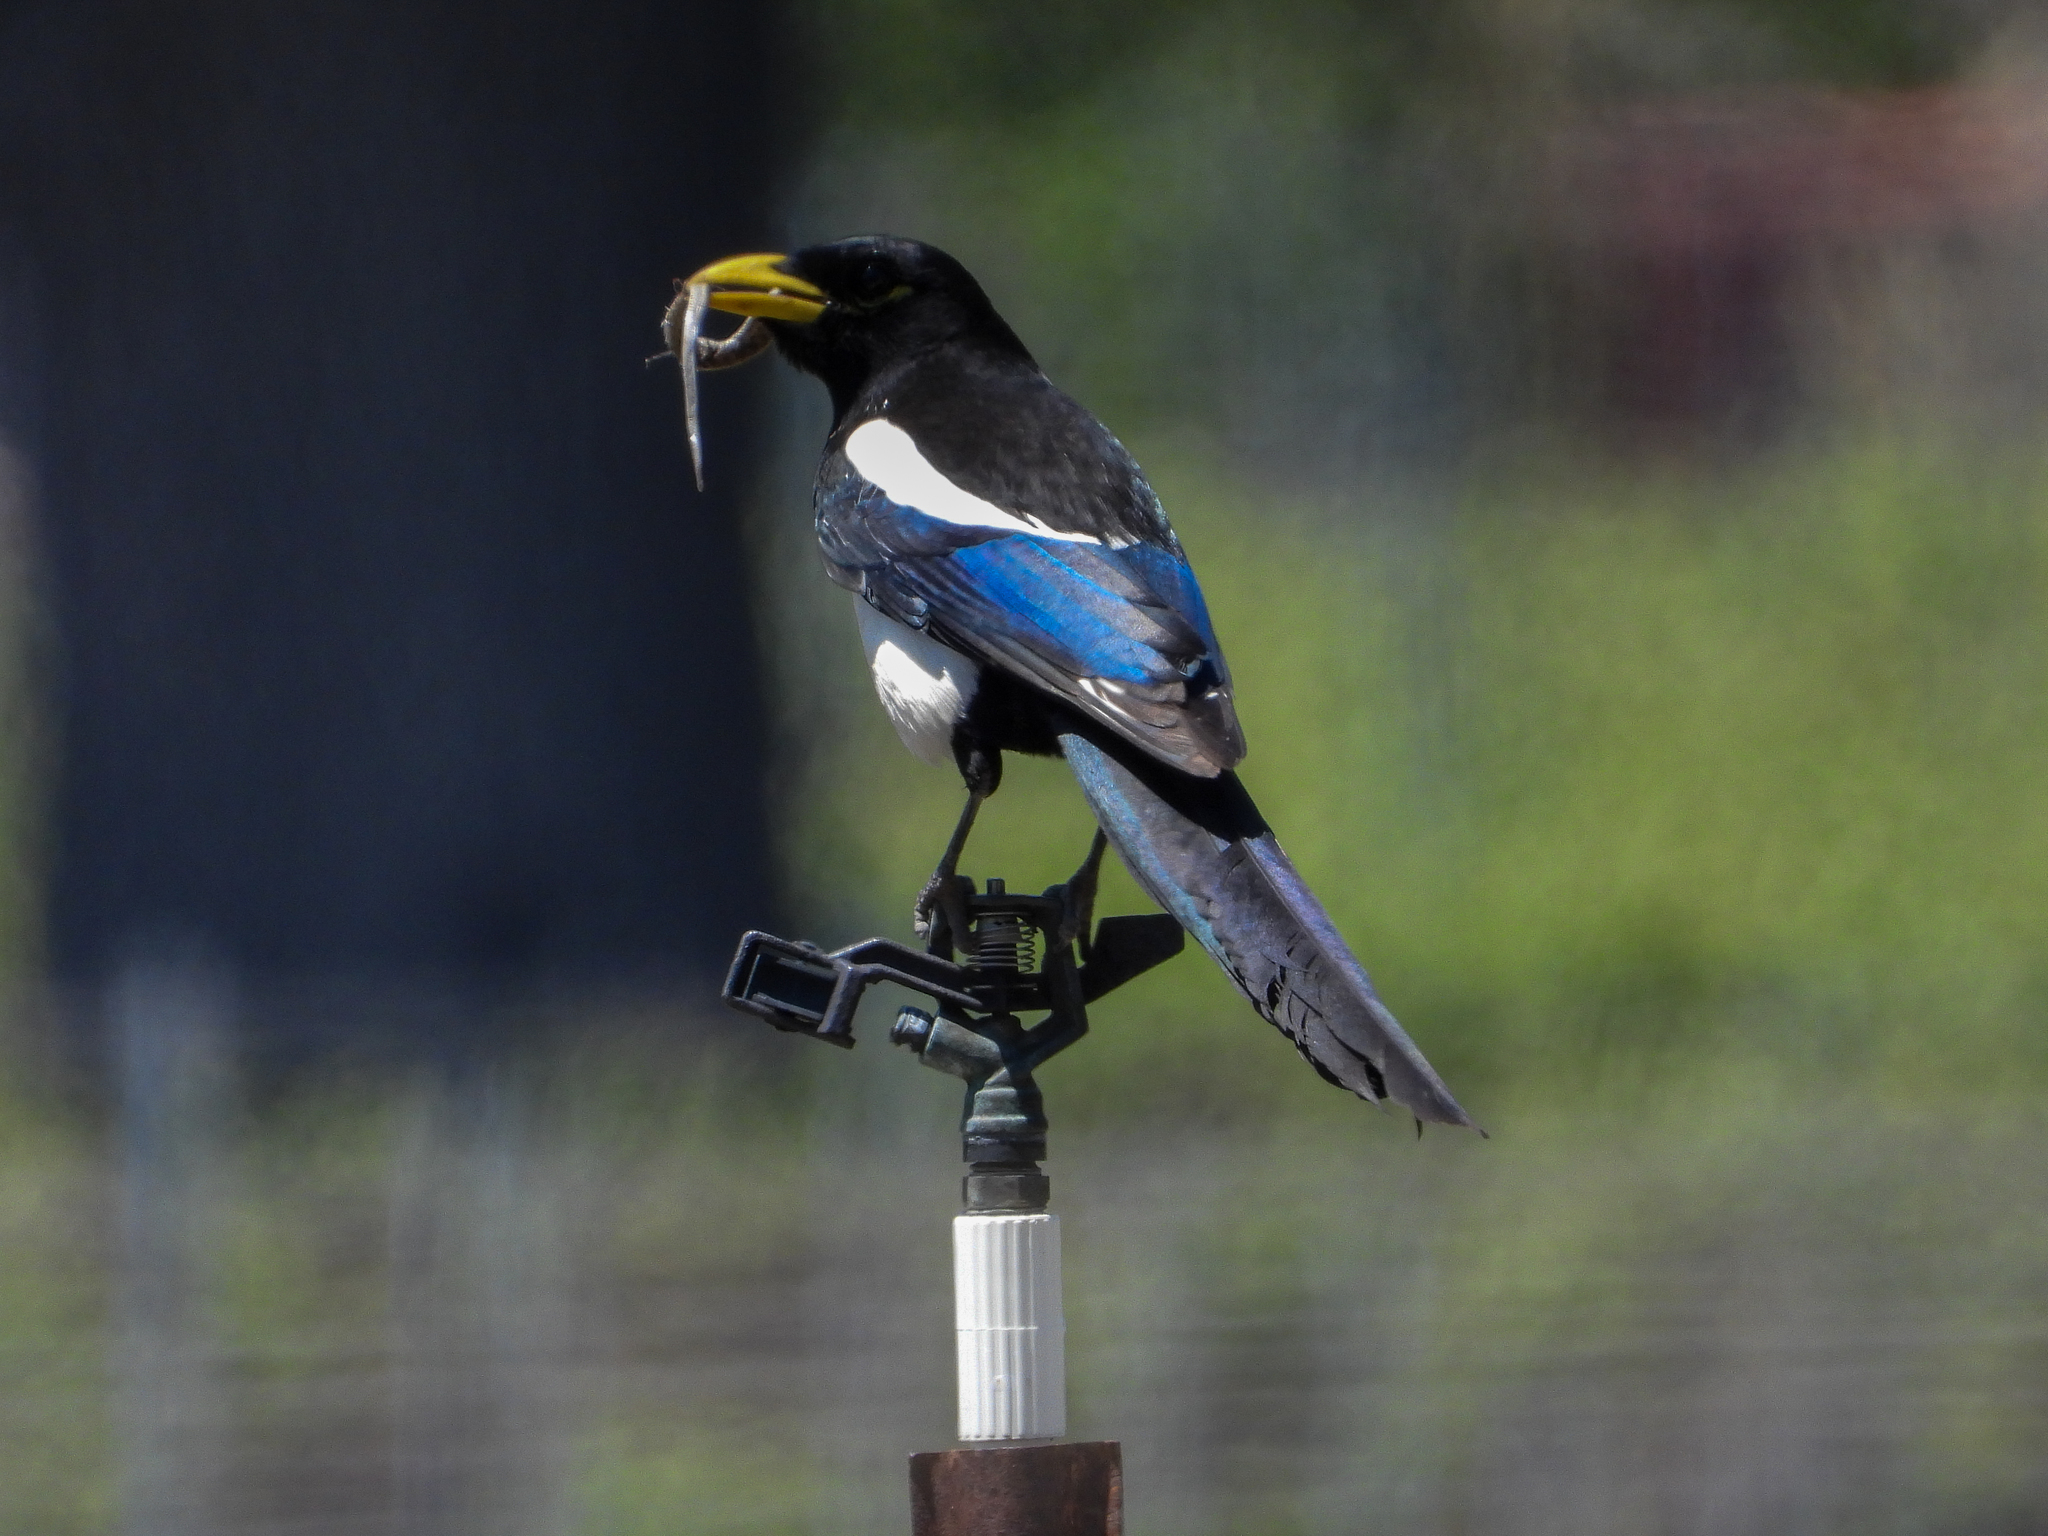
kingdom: Animalia
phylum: Chordata
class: Aves
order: Passeriformes
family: Corvidae
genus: Pica
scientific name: Pica nuttalli
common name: Yellow-billed magpie
